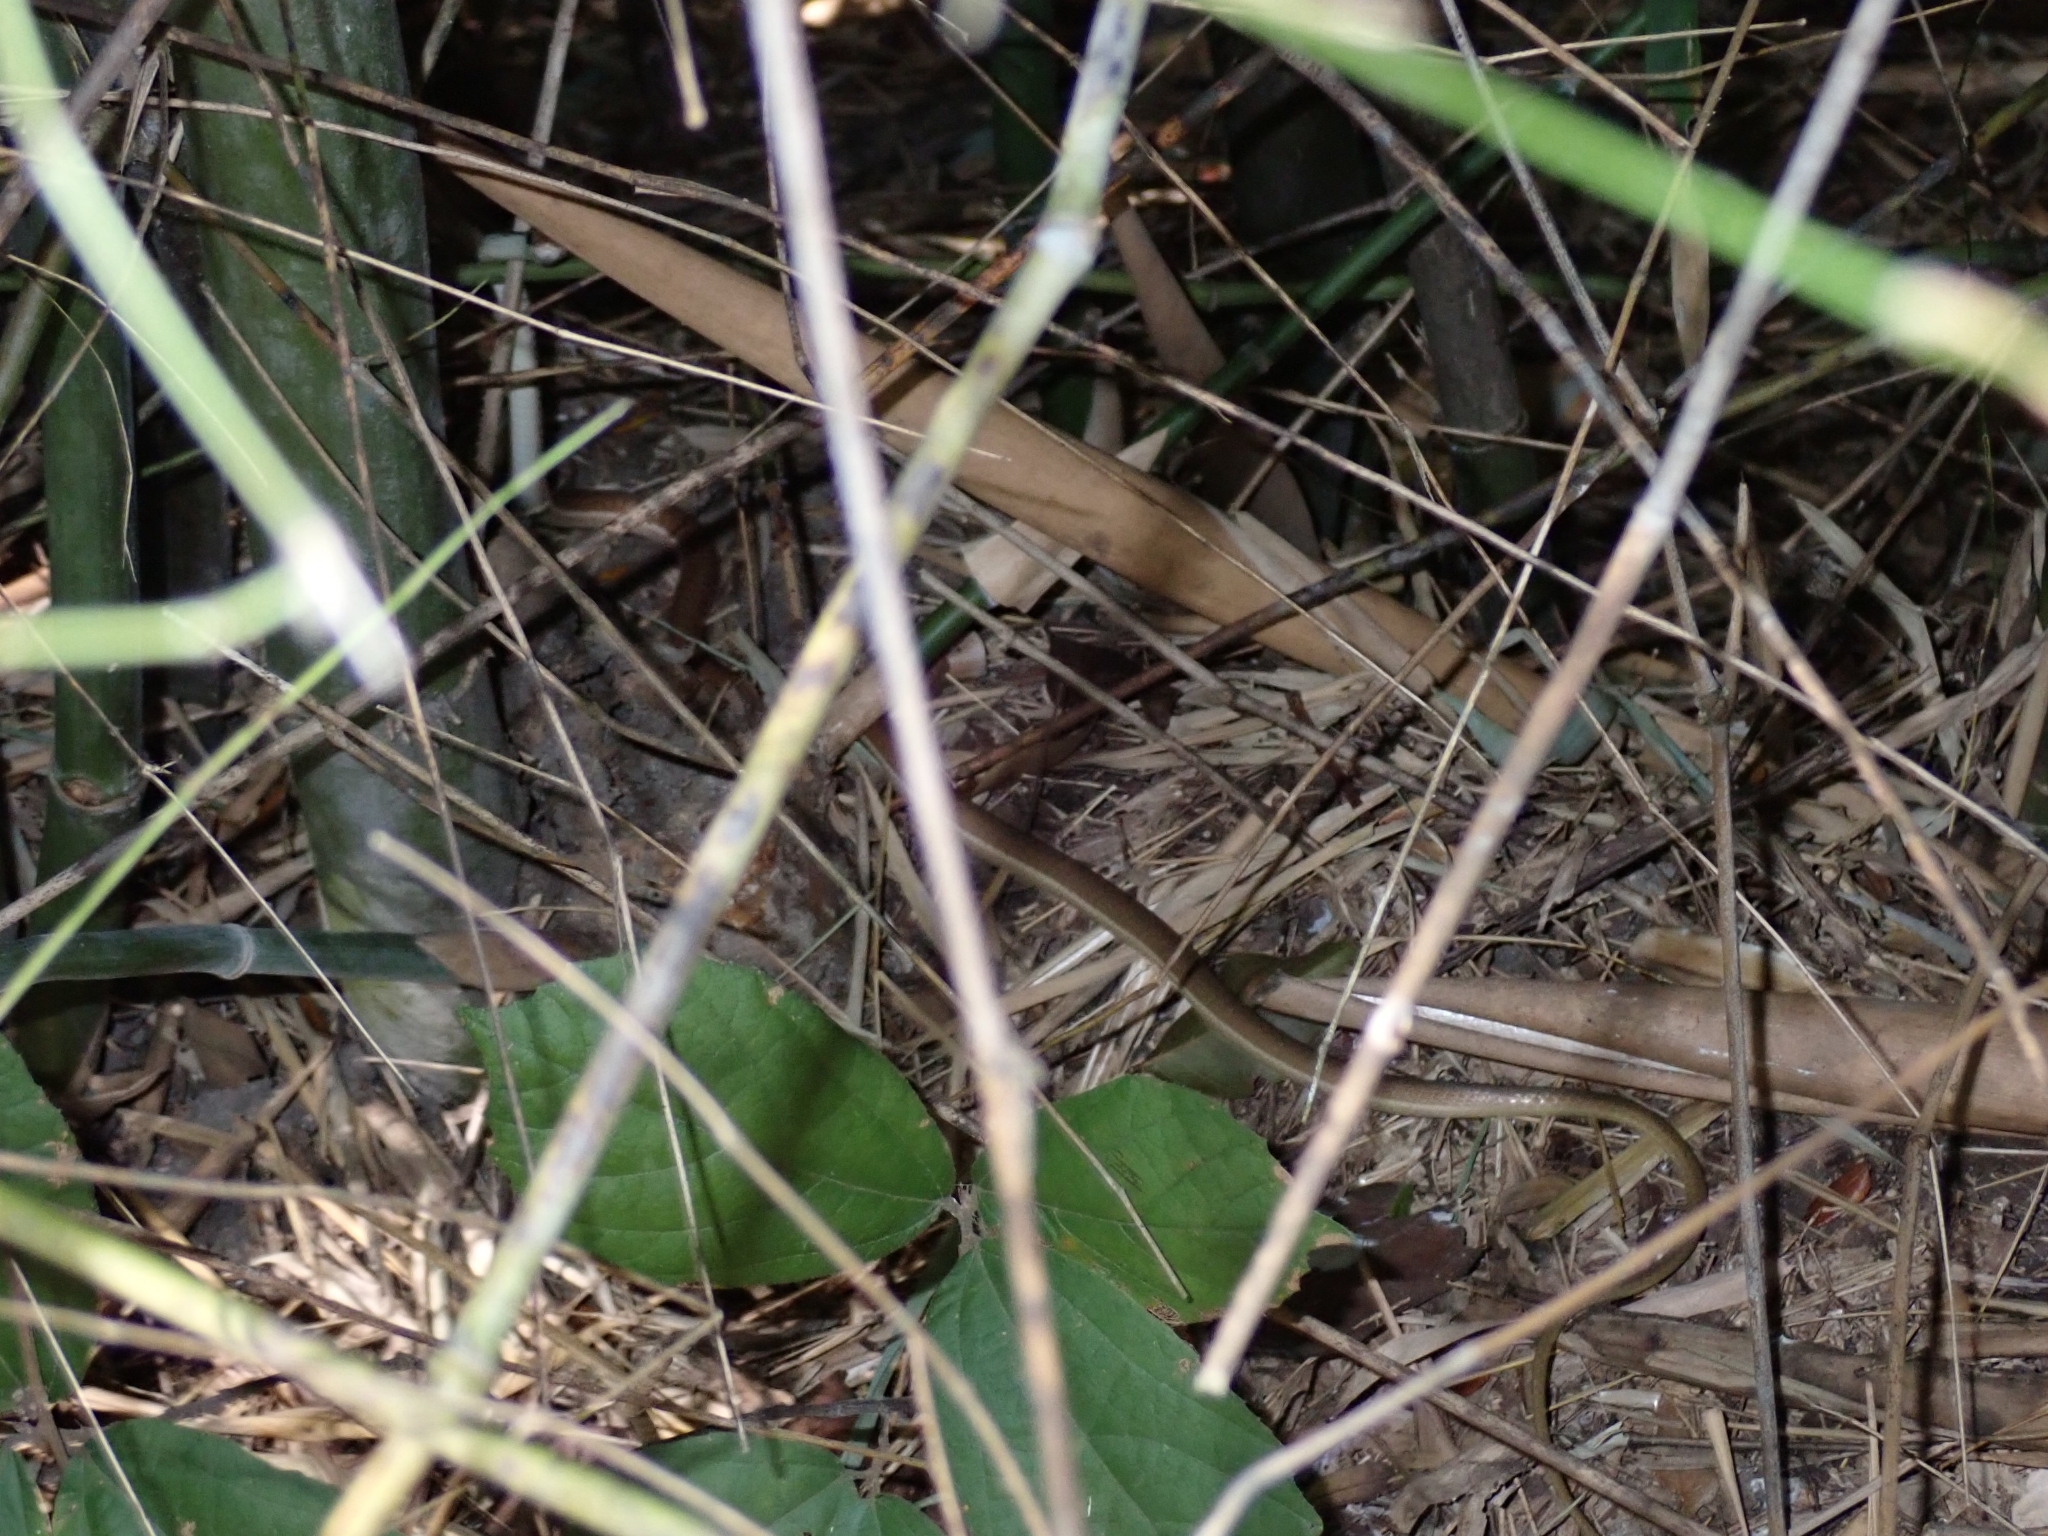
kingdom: Animalia
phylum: Chordata
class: Squamata
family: Colubridae
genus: Dendrelaphis
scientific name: Dendrelaphis subocularis
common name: Mountain bronzeback tree snake
